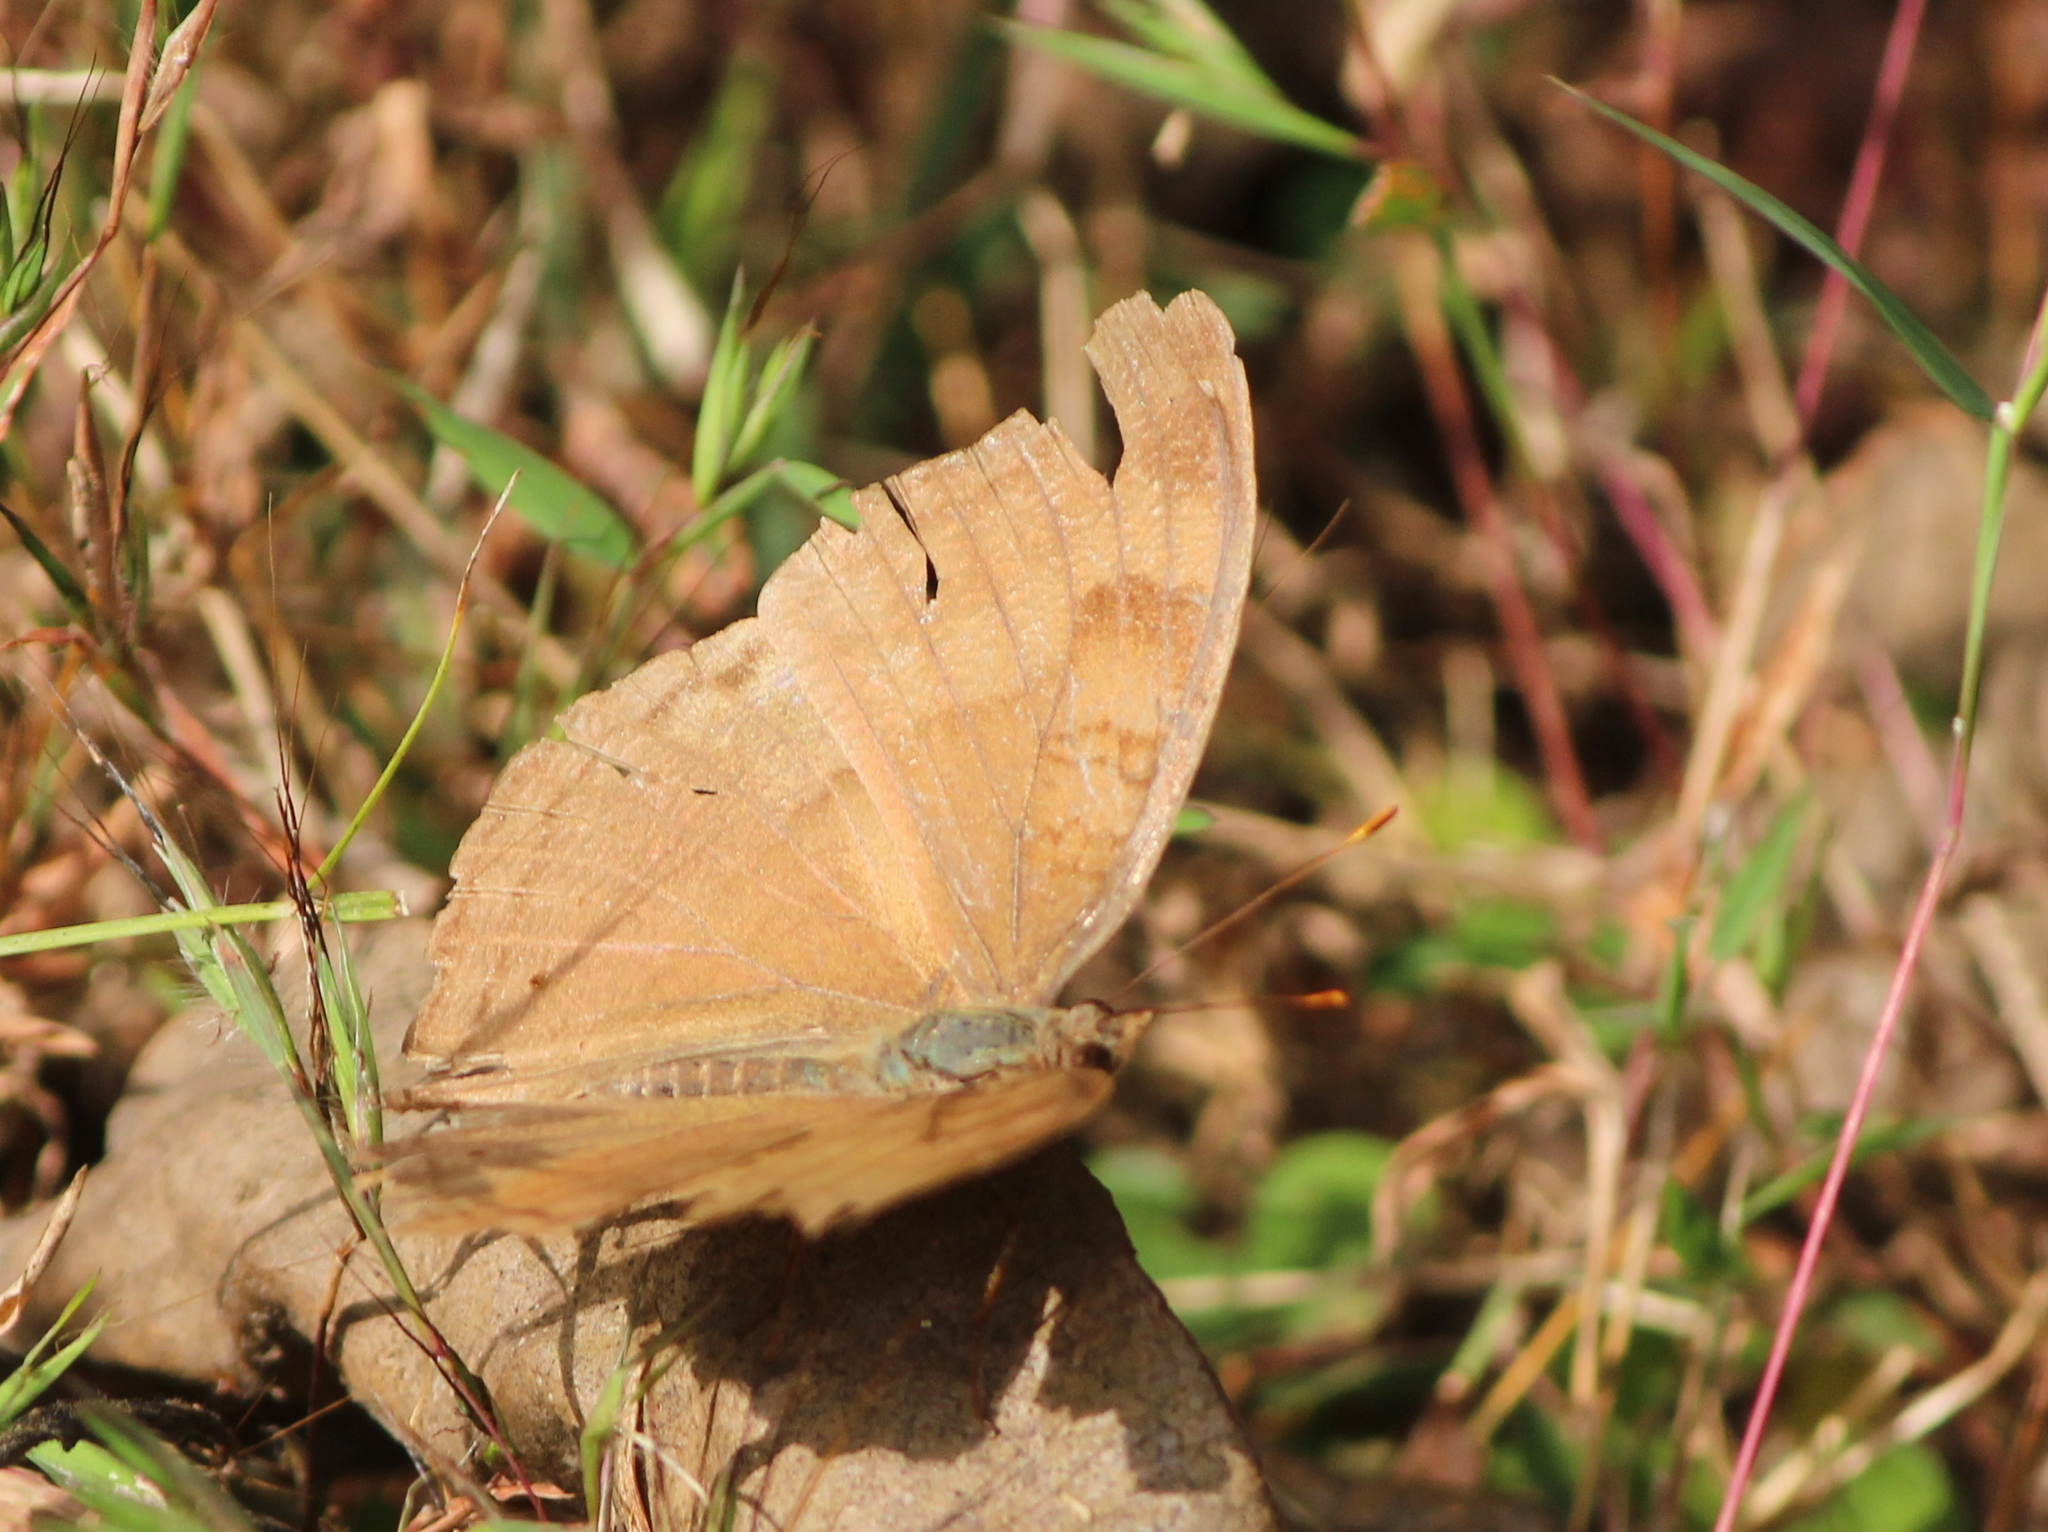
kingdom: Animalia
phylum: Arthropoda
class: Insecta
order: Lepidoptera
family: Nymphalidae
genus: Junonia
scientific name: Junonia iphita
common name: Chocolate pansy
